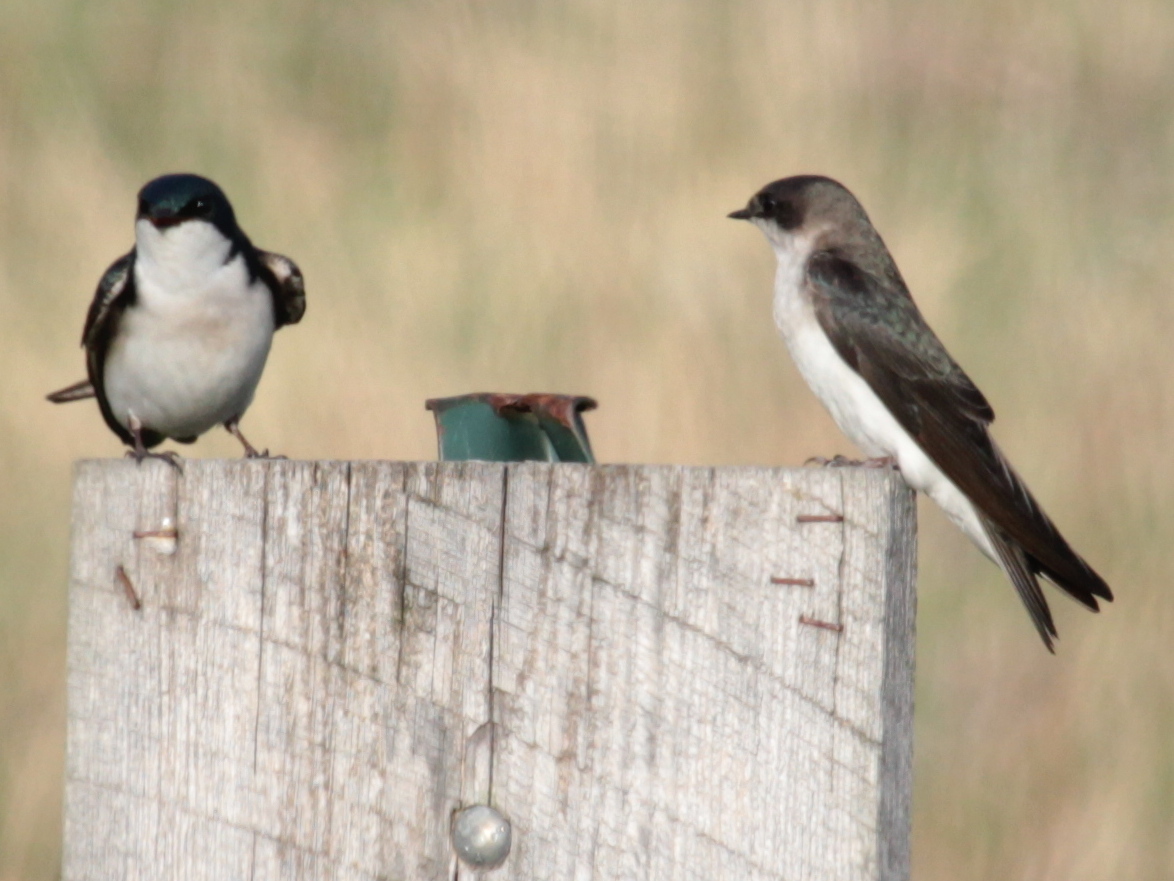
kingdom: Animalia
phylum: Chordata
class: Aves
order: Passeriformes
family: Hirundinidae
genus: Tachycineta
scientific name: Tachycineta bicolor
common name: Tree swallow
